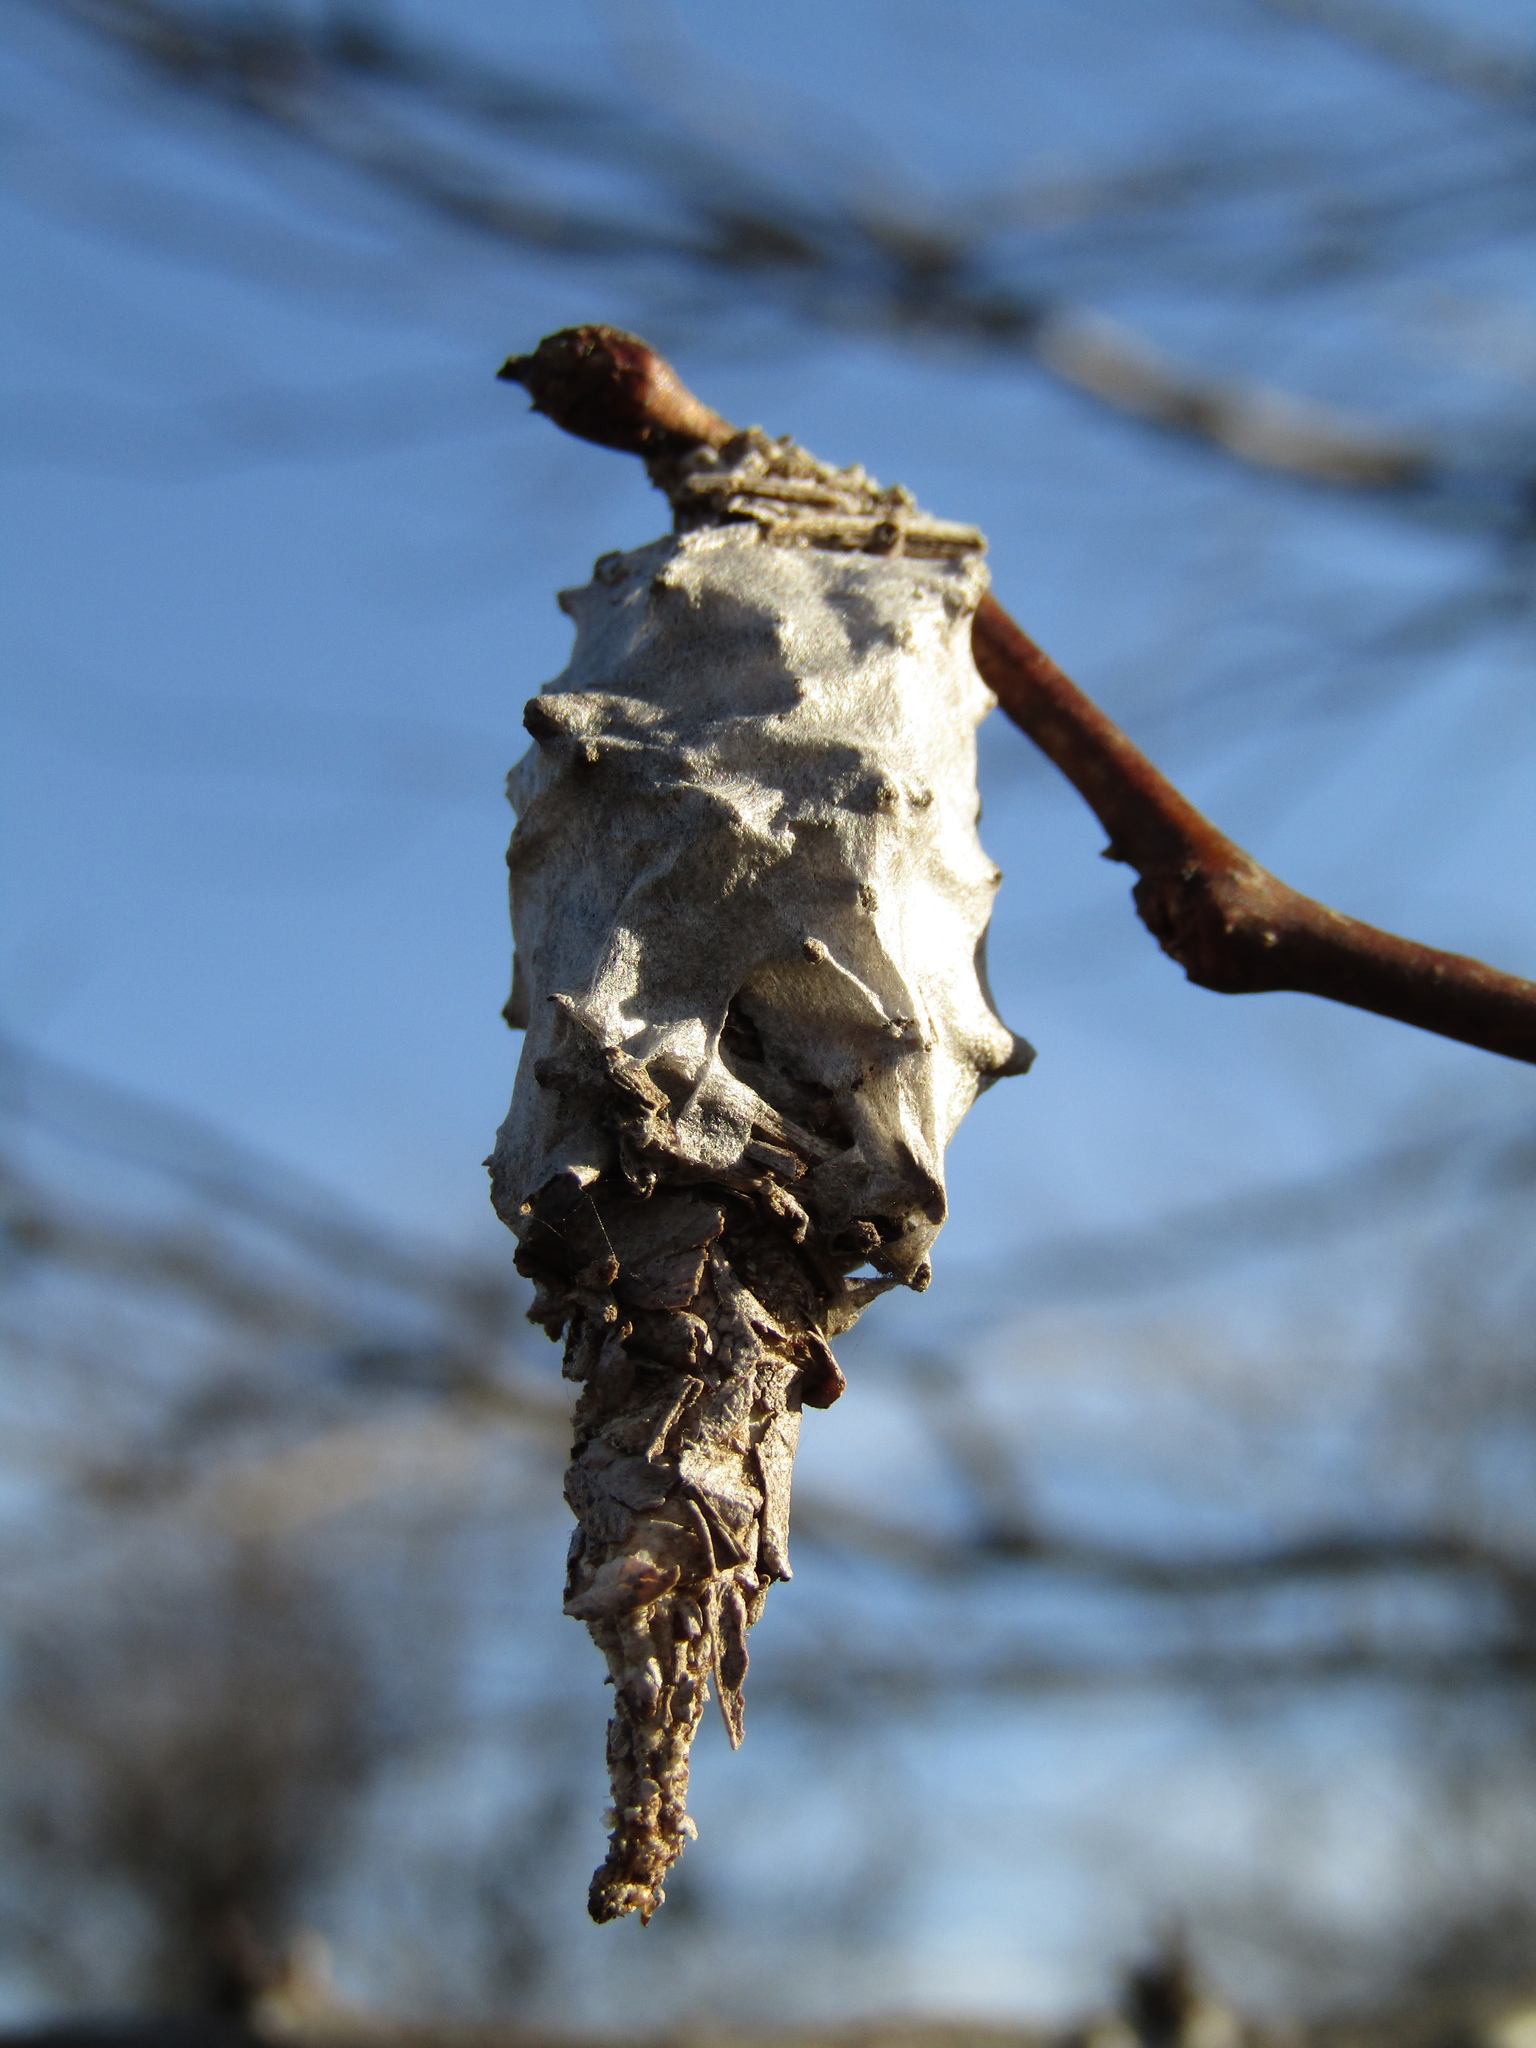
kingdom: Animalia
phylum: Arthropoda
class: Insecta
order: Lepidoptera
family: Psychidae
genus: Oiketicus
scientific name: Oiketicus
